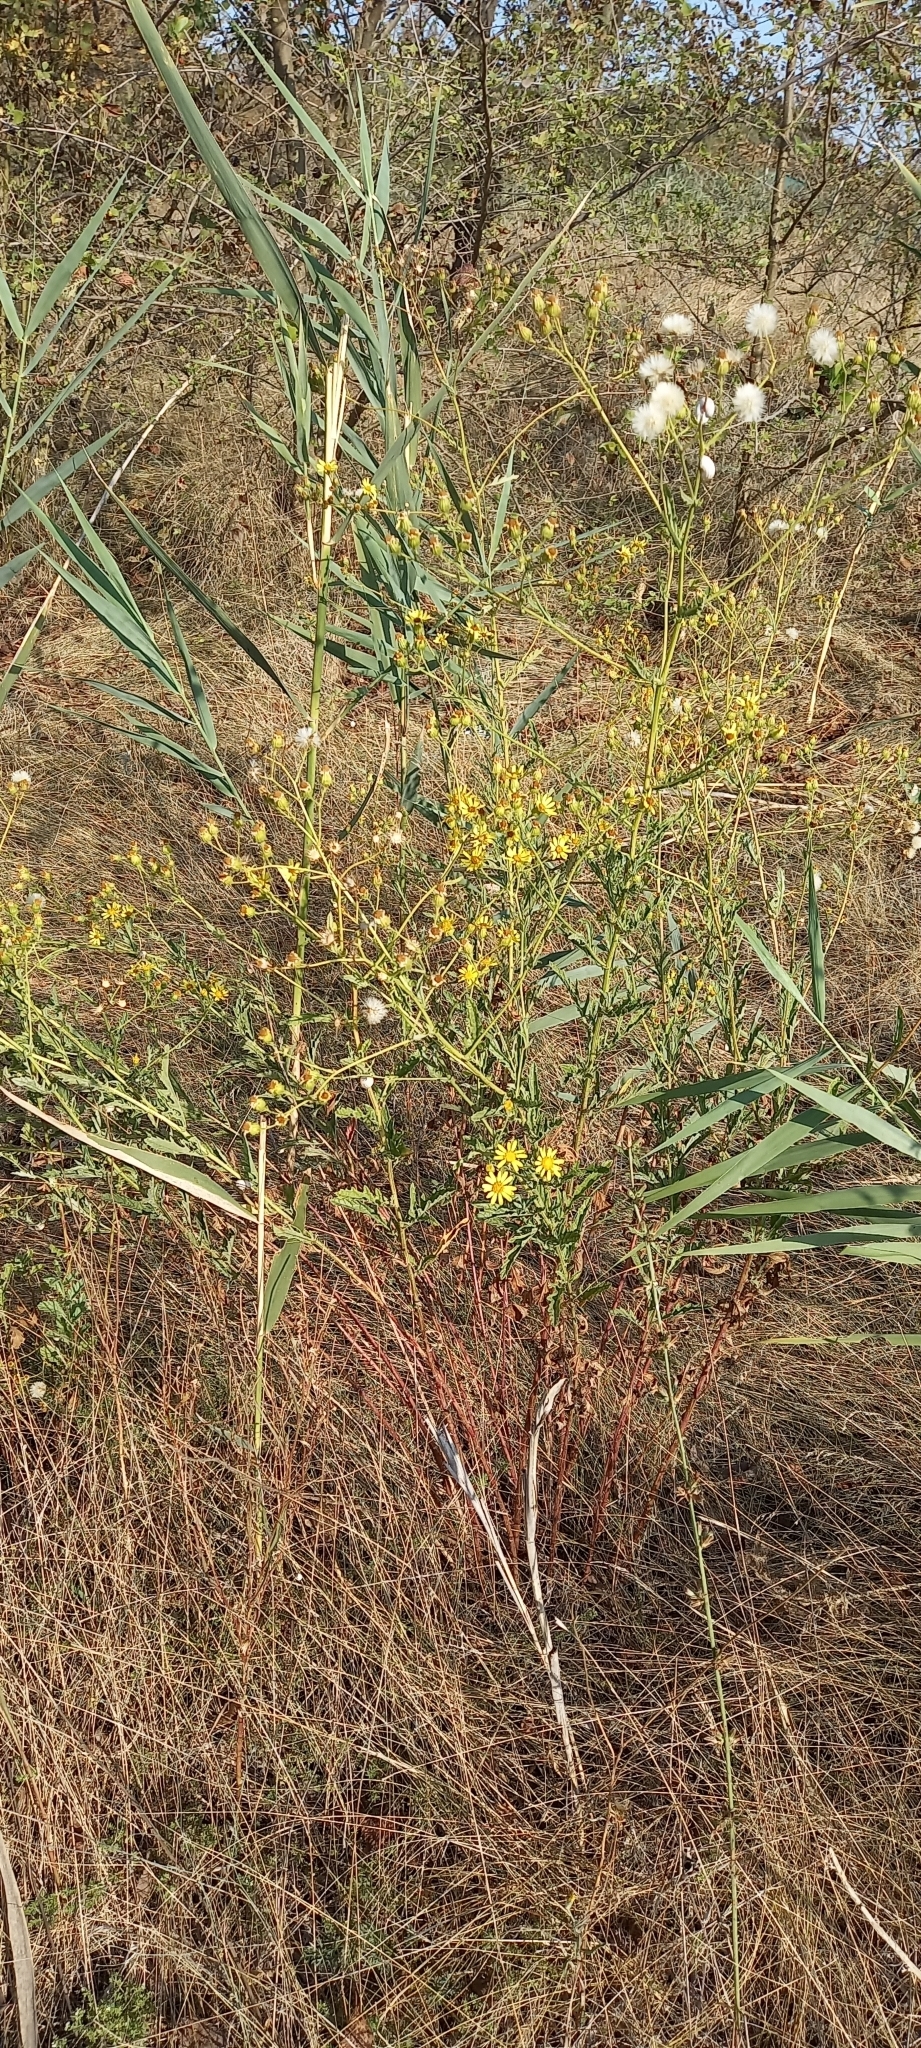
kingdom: Plantae
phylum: Tracheophyta
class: Magnoliopsida
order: Asterales
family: Asteraceae
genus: Jacobaea
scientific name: Jacobaea erucifolia
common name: Hoary ragwort
